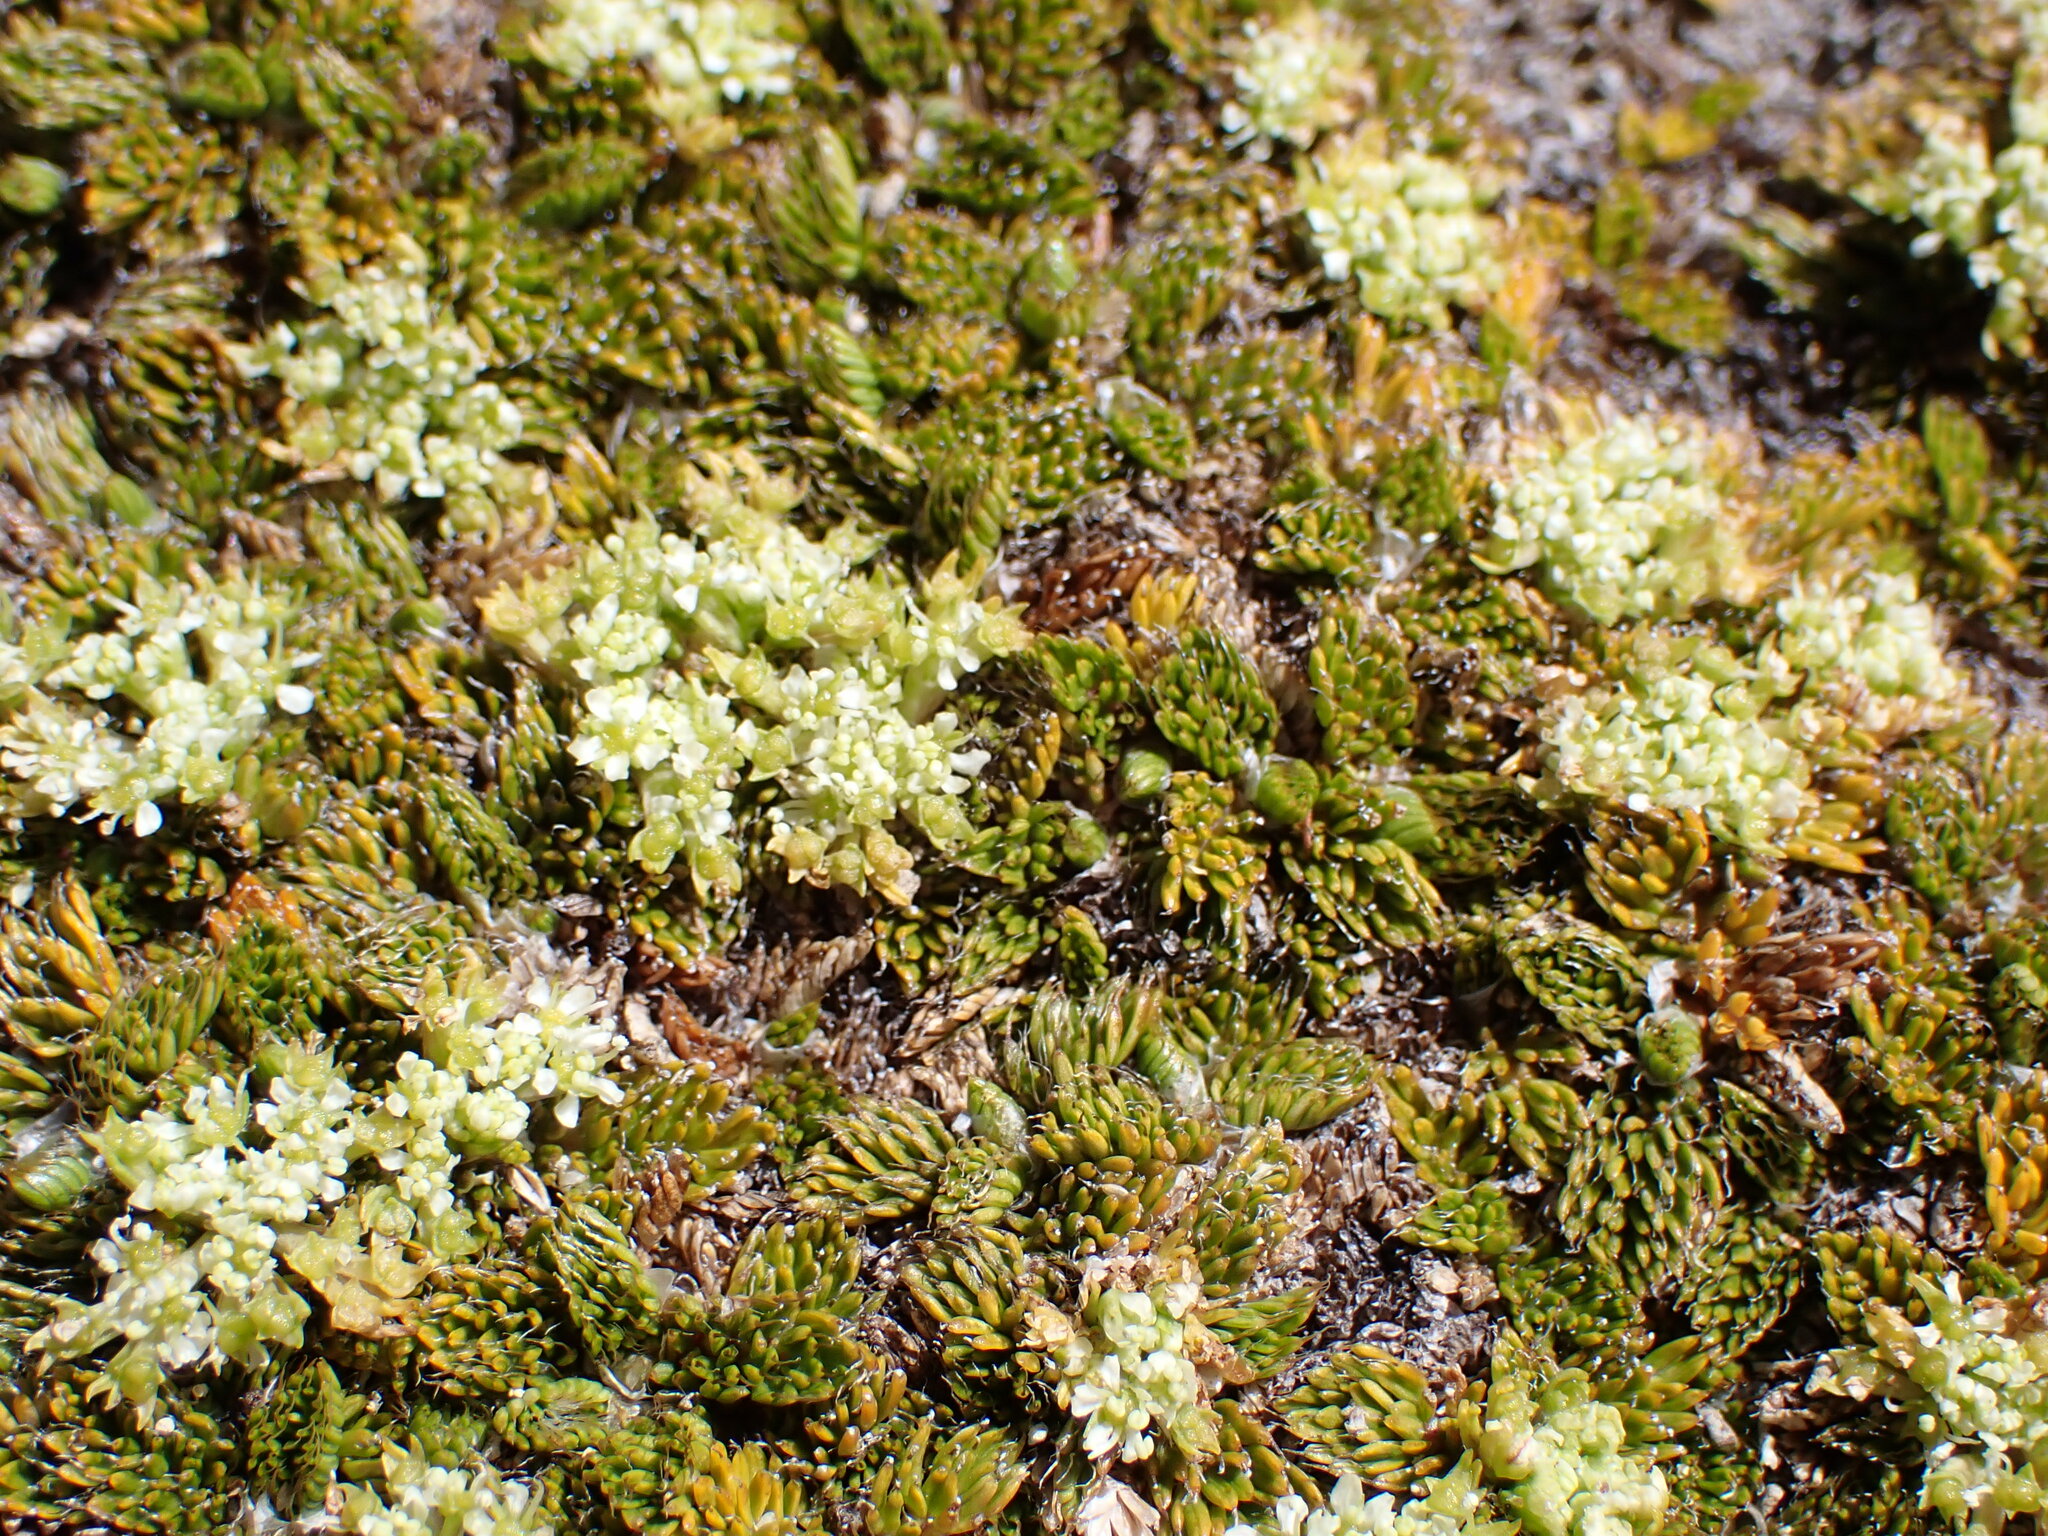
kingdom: Plantae
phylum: Tracheophyta
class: Magnoliopsida
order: Apiales
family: Apiaceae
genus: Anisotome
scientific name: Anisotome imbricata
